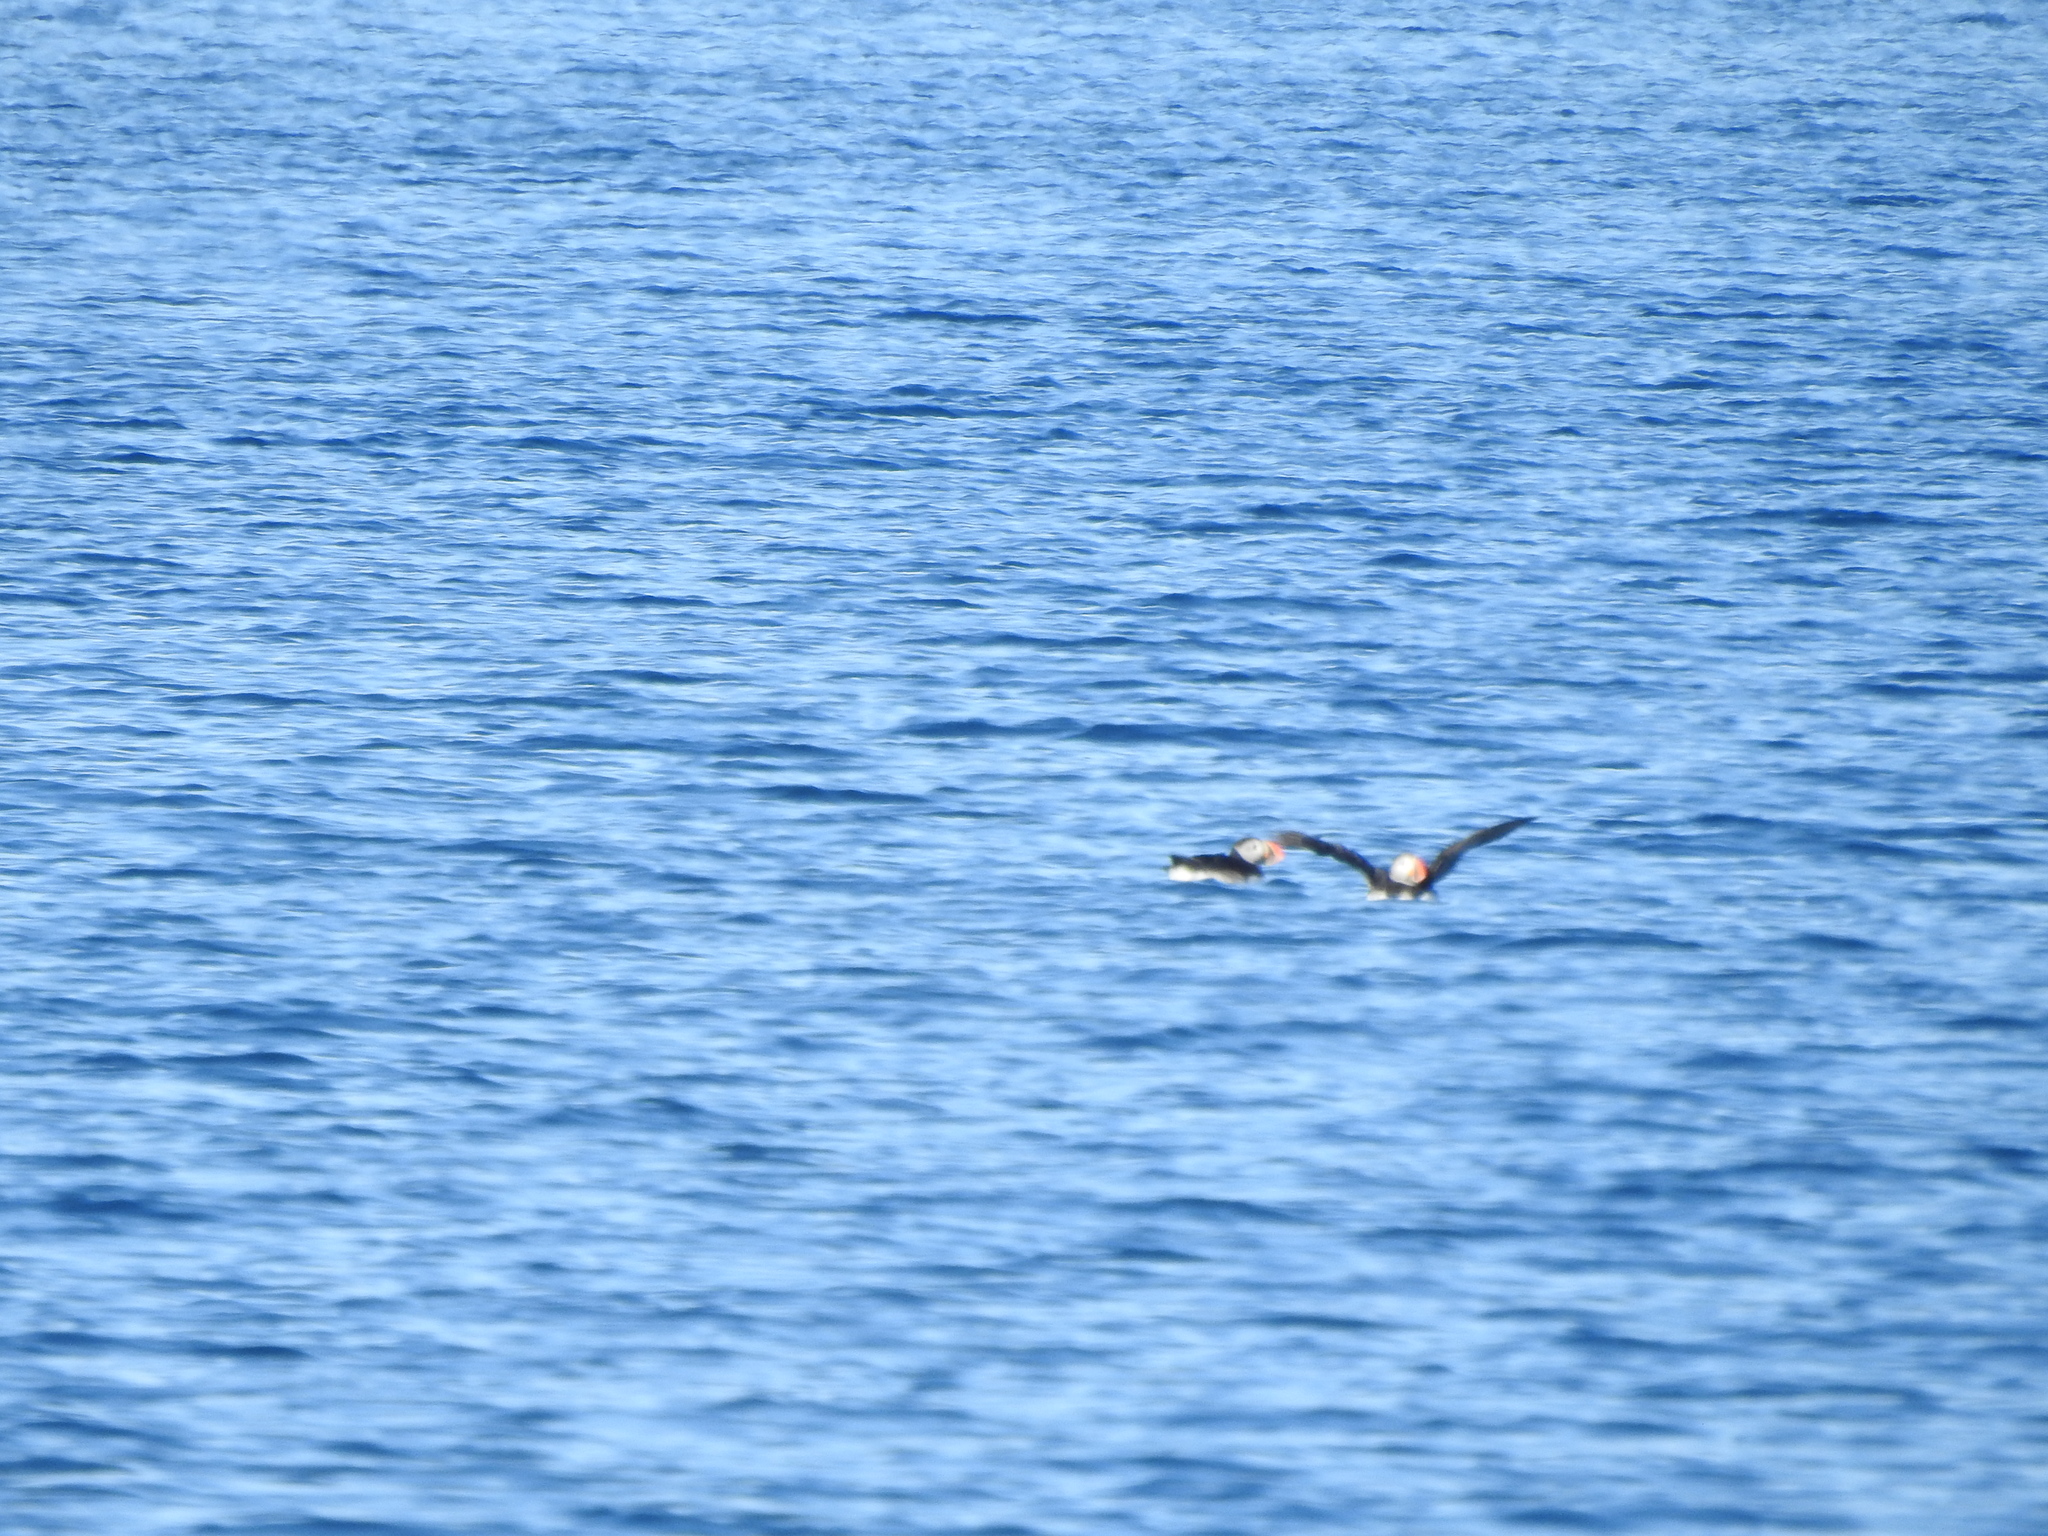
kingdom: Animalia
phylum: Chordata
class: Aves
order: Charadriiformes
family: Alcidae
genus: Fratercula
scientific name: Fratercula arctica
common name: Atlantic puffin
